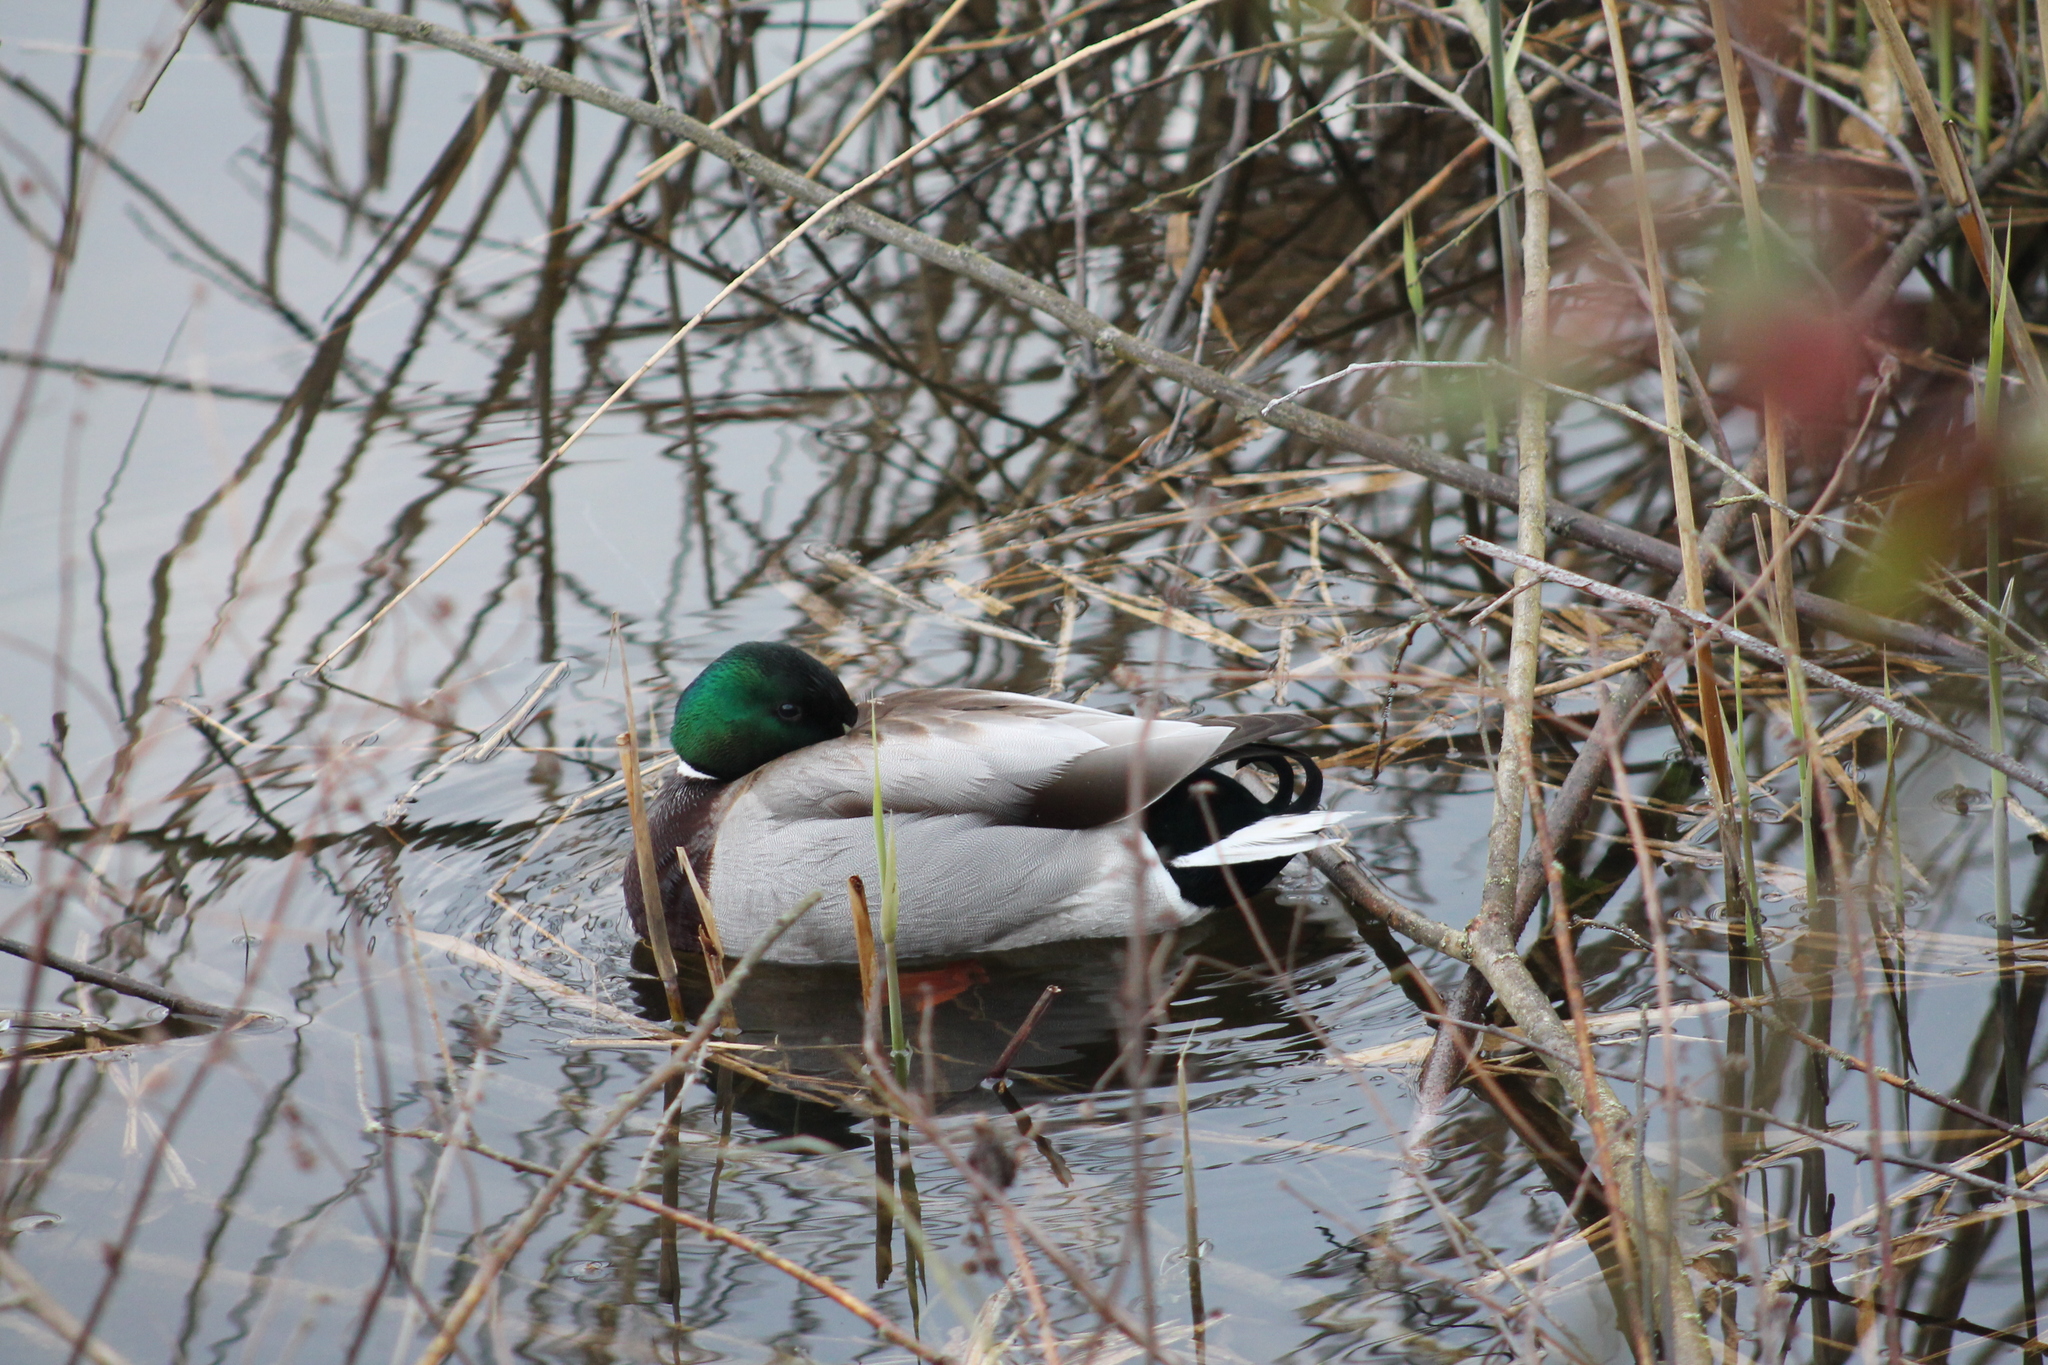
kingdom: Animalia
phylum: Chordata
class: Aves
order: Anseriformes
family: Anatidae
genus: Anas
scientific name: Anas platyrhynchos
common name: Mallard
